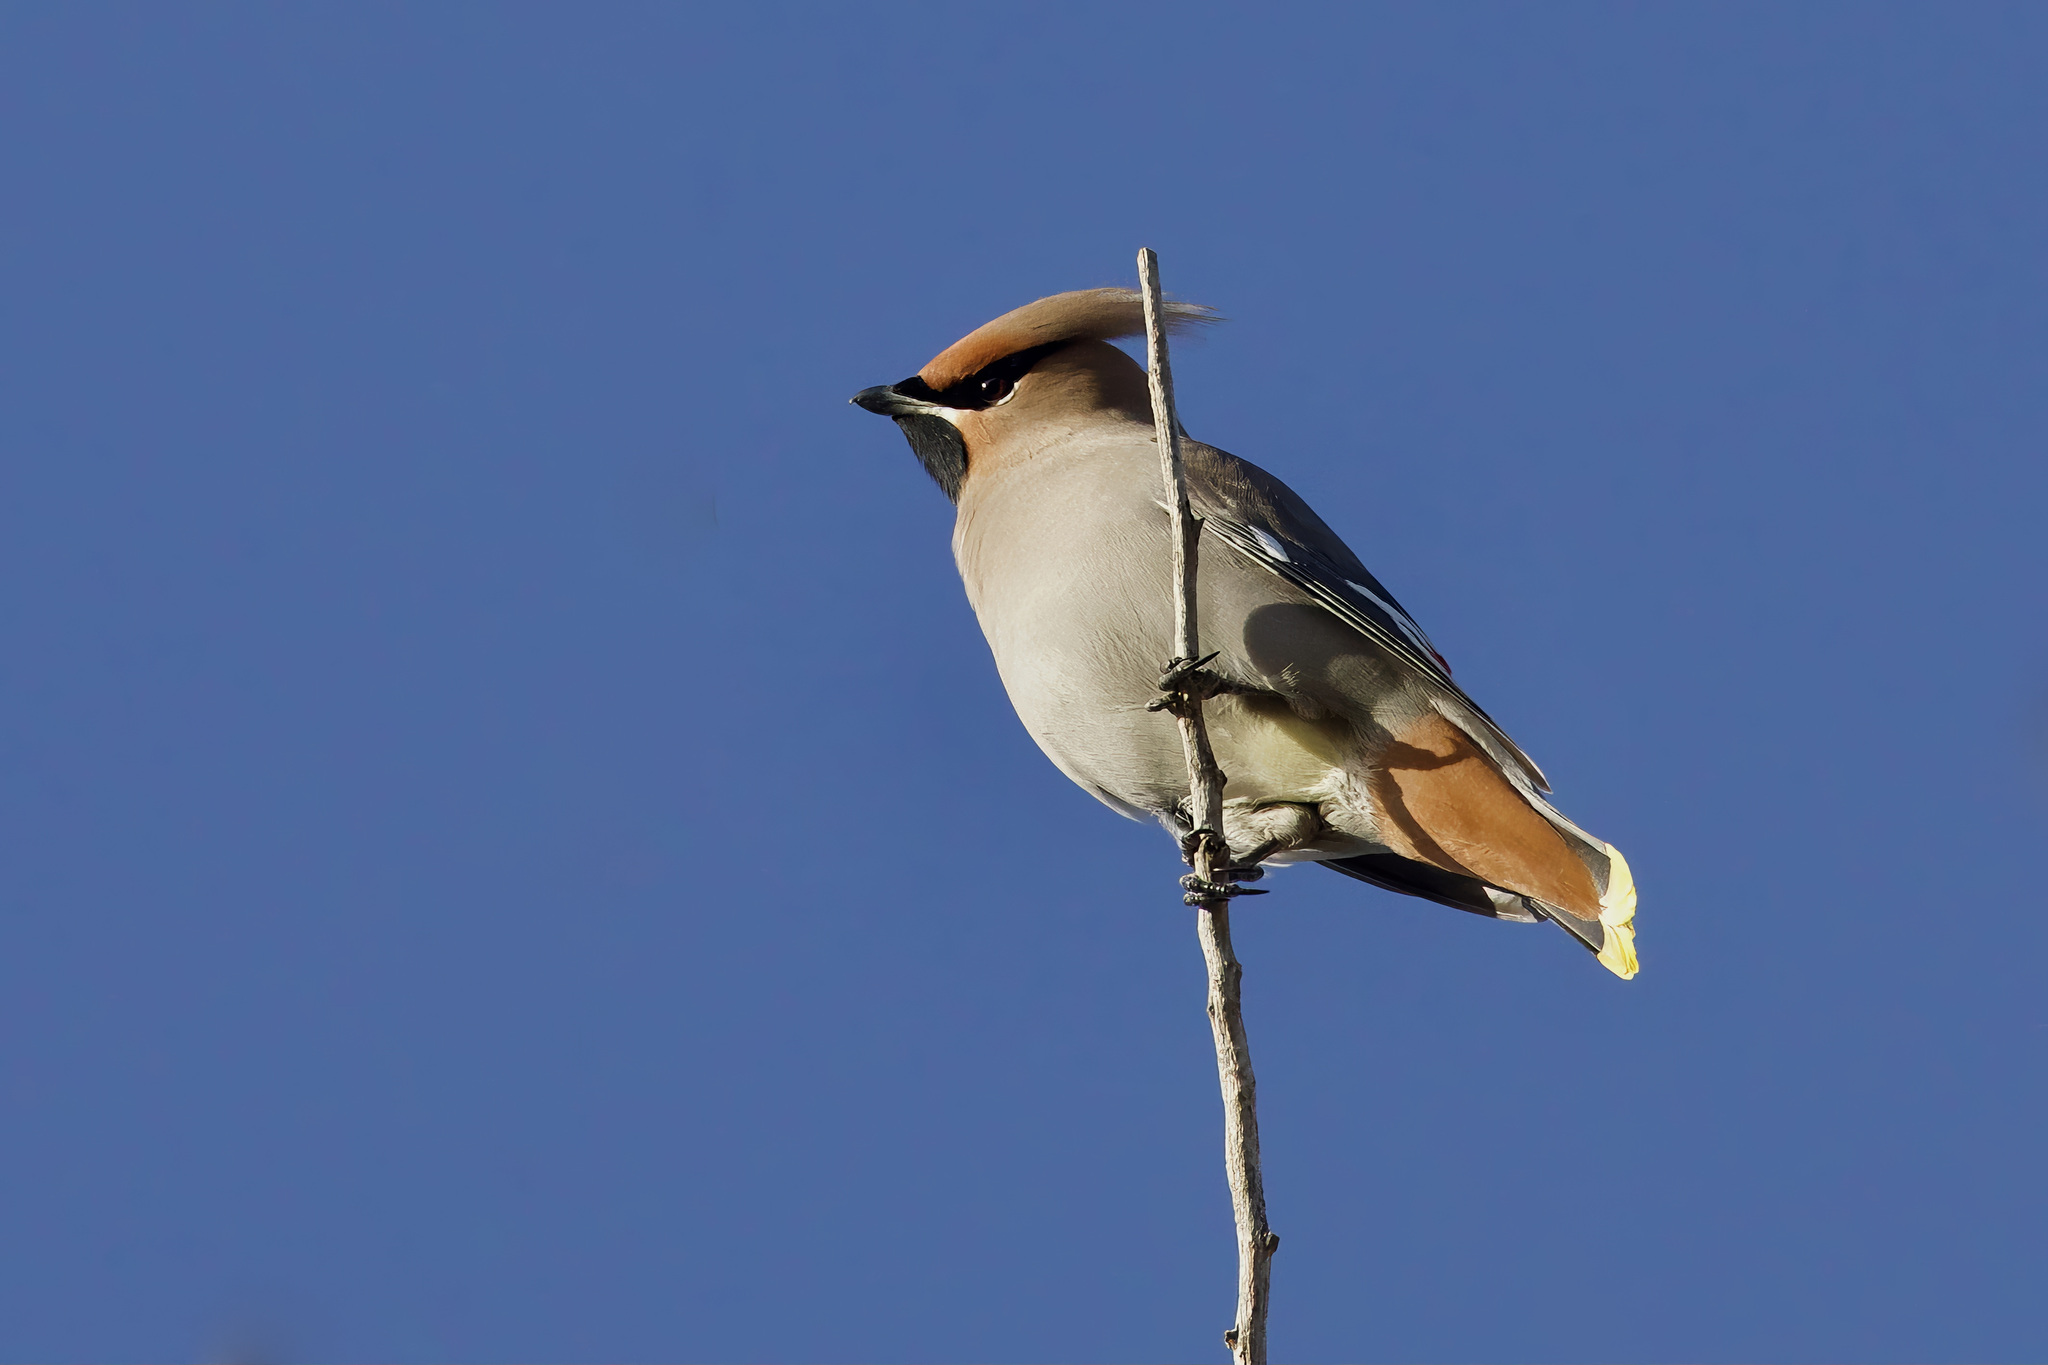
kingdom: Animalia
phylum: Chordata
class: Aves
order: Passeriformes
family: Bombycillidae
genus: Bombycilla
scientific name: Bombycilla garrulus
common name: Bohemian waxwing
